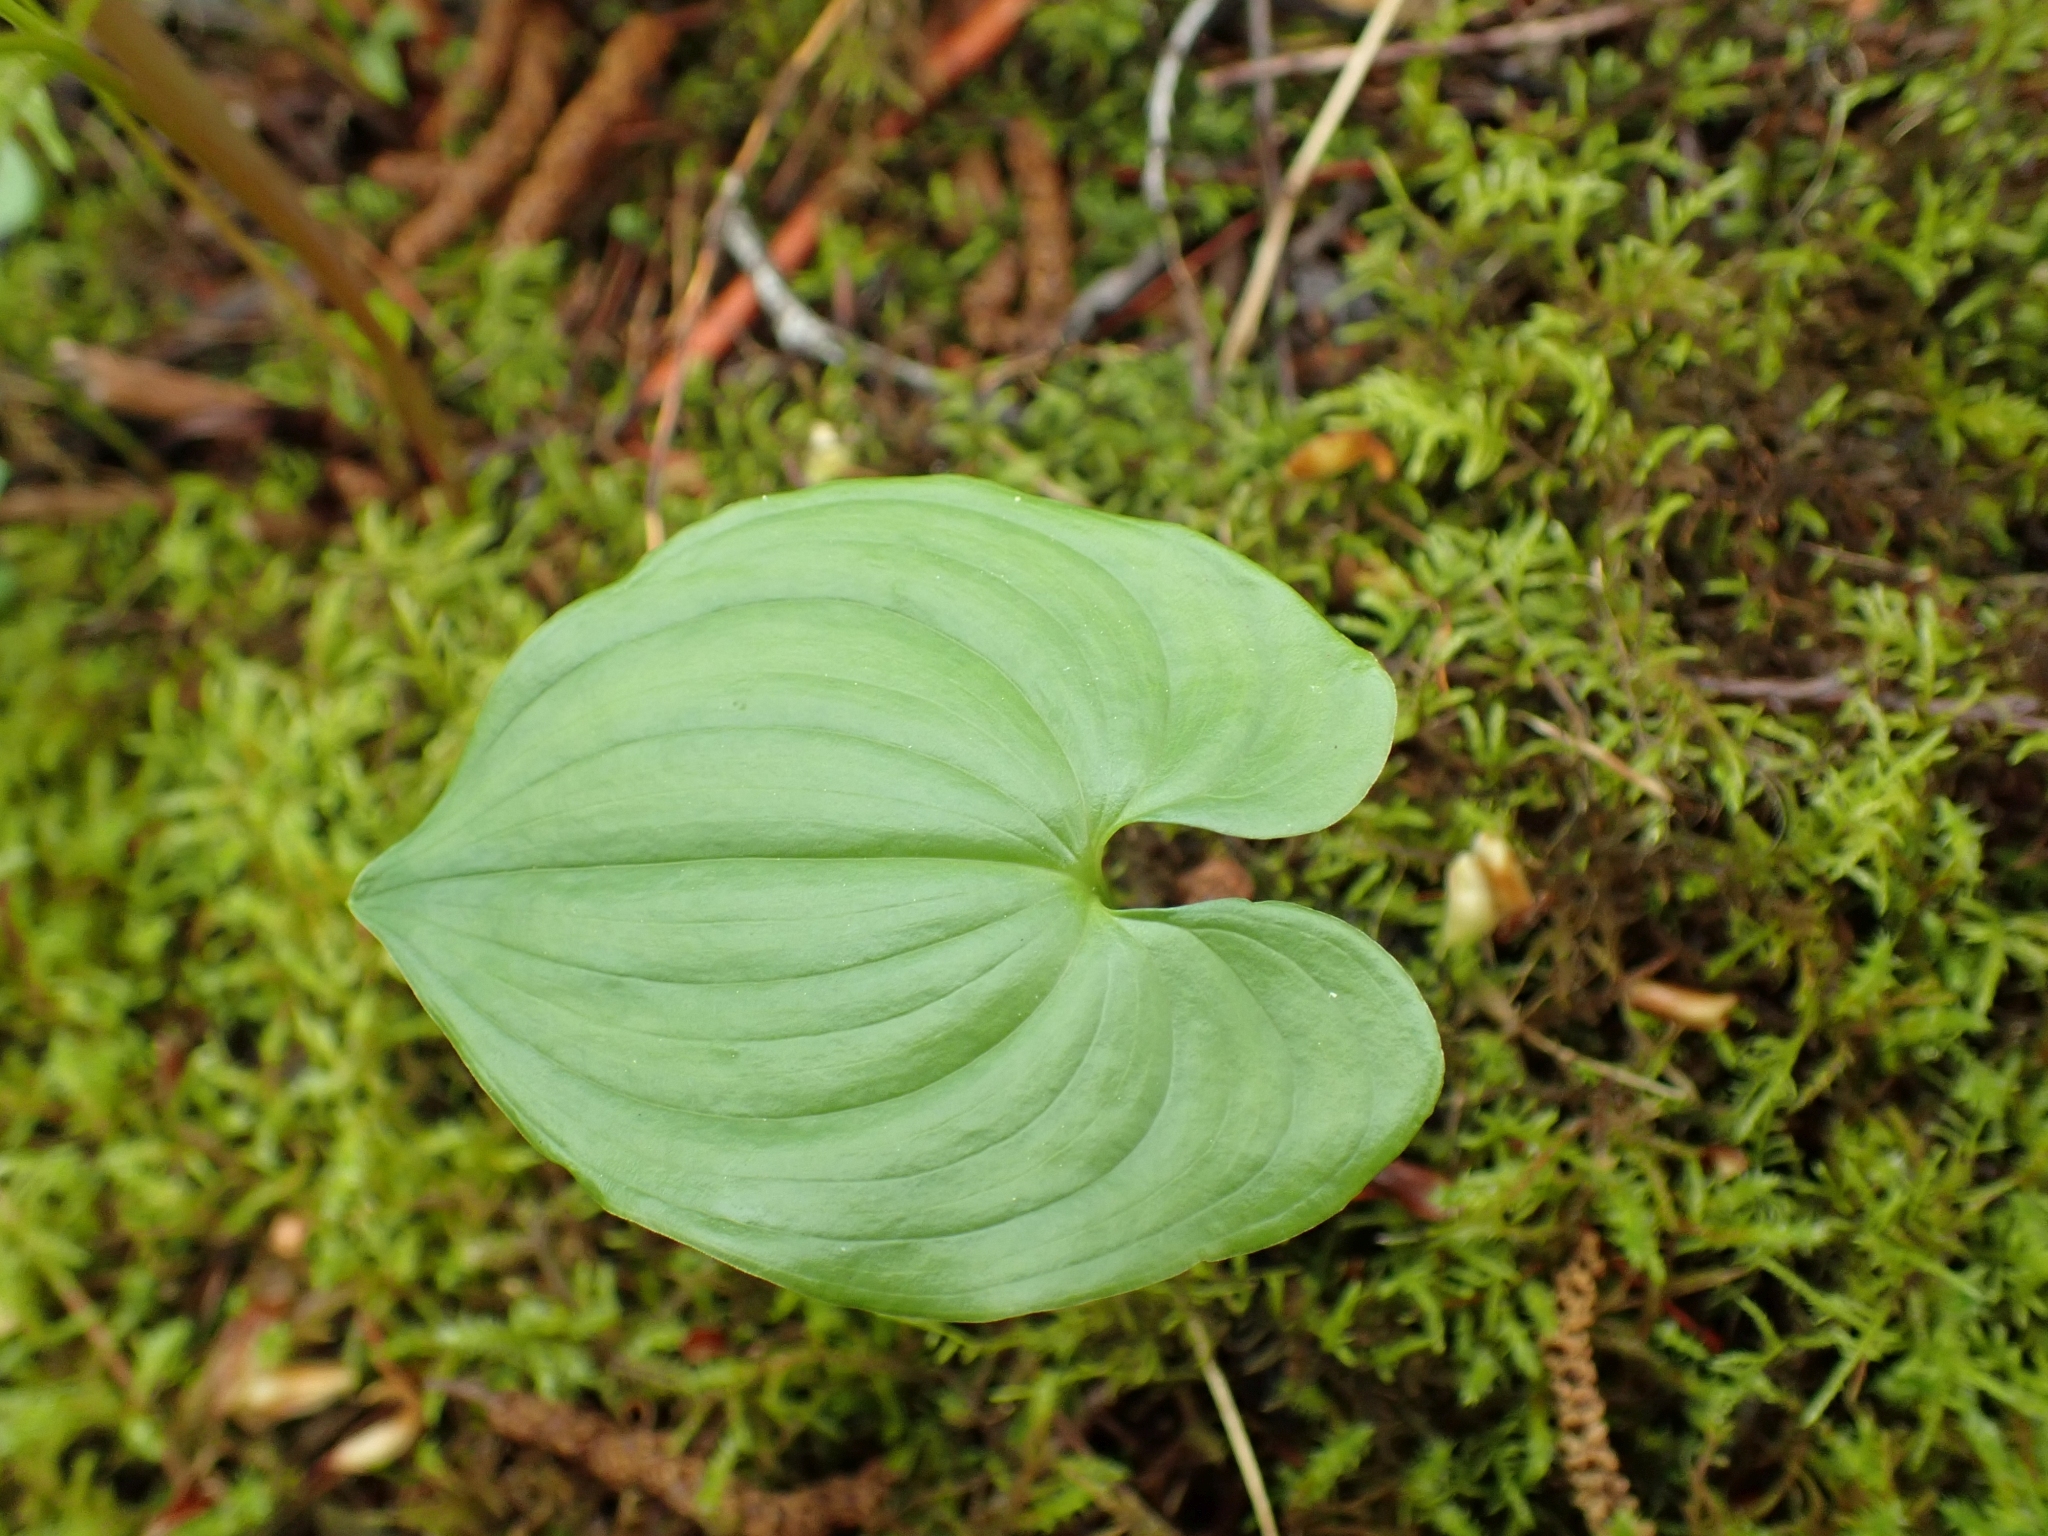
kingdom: Plantae
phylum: Tracheophyta
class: Liliopsida
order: Asparagales
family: Asparagaceae
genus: Maianthemum
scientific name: Maianthemum dilatatum
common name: False lily-of-the-valley
